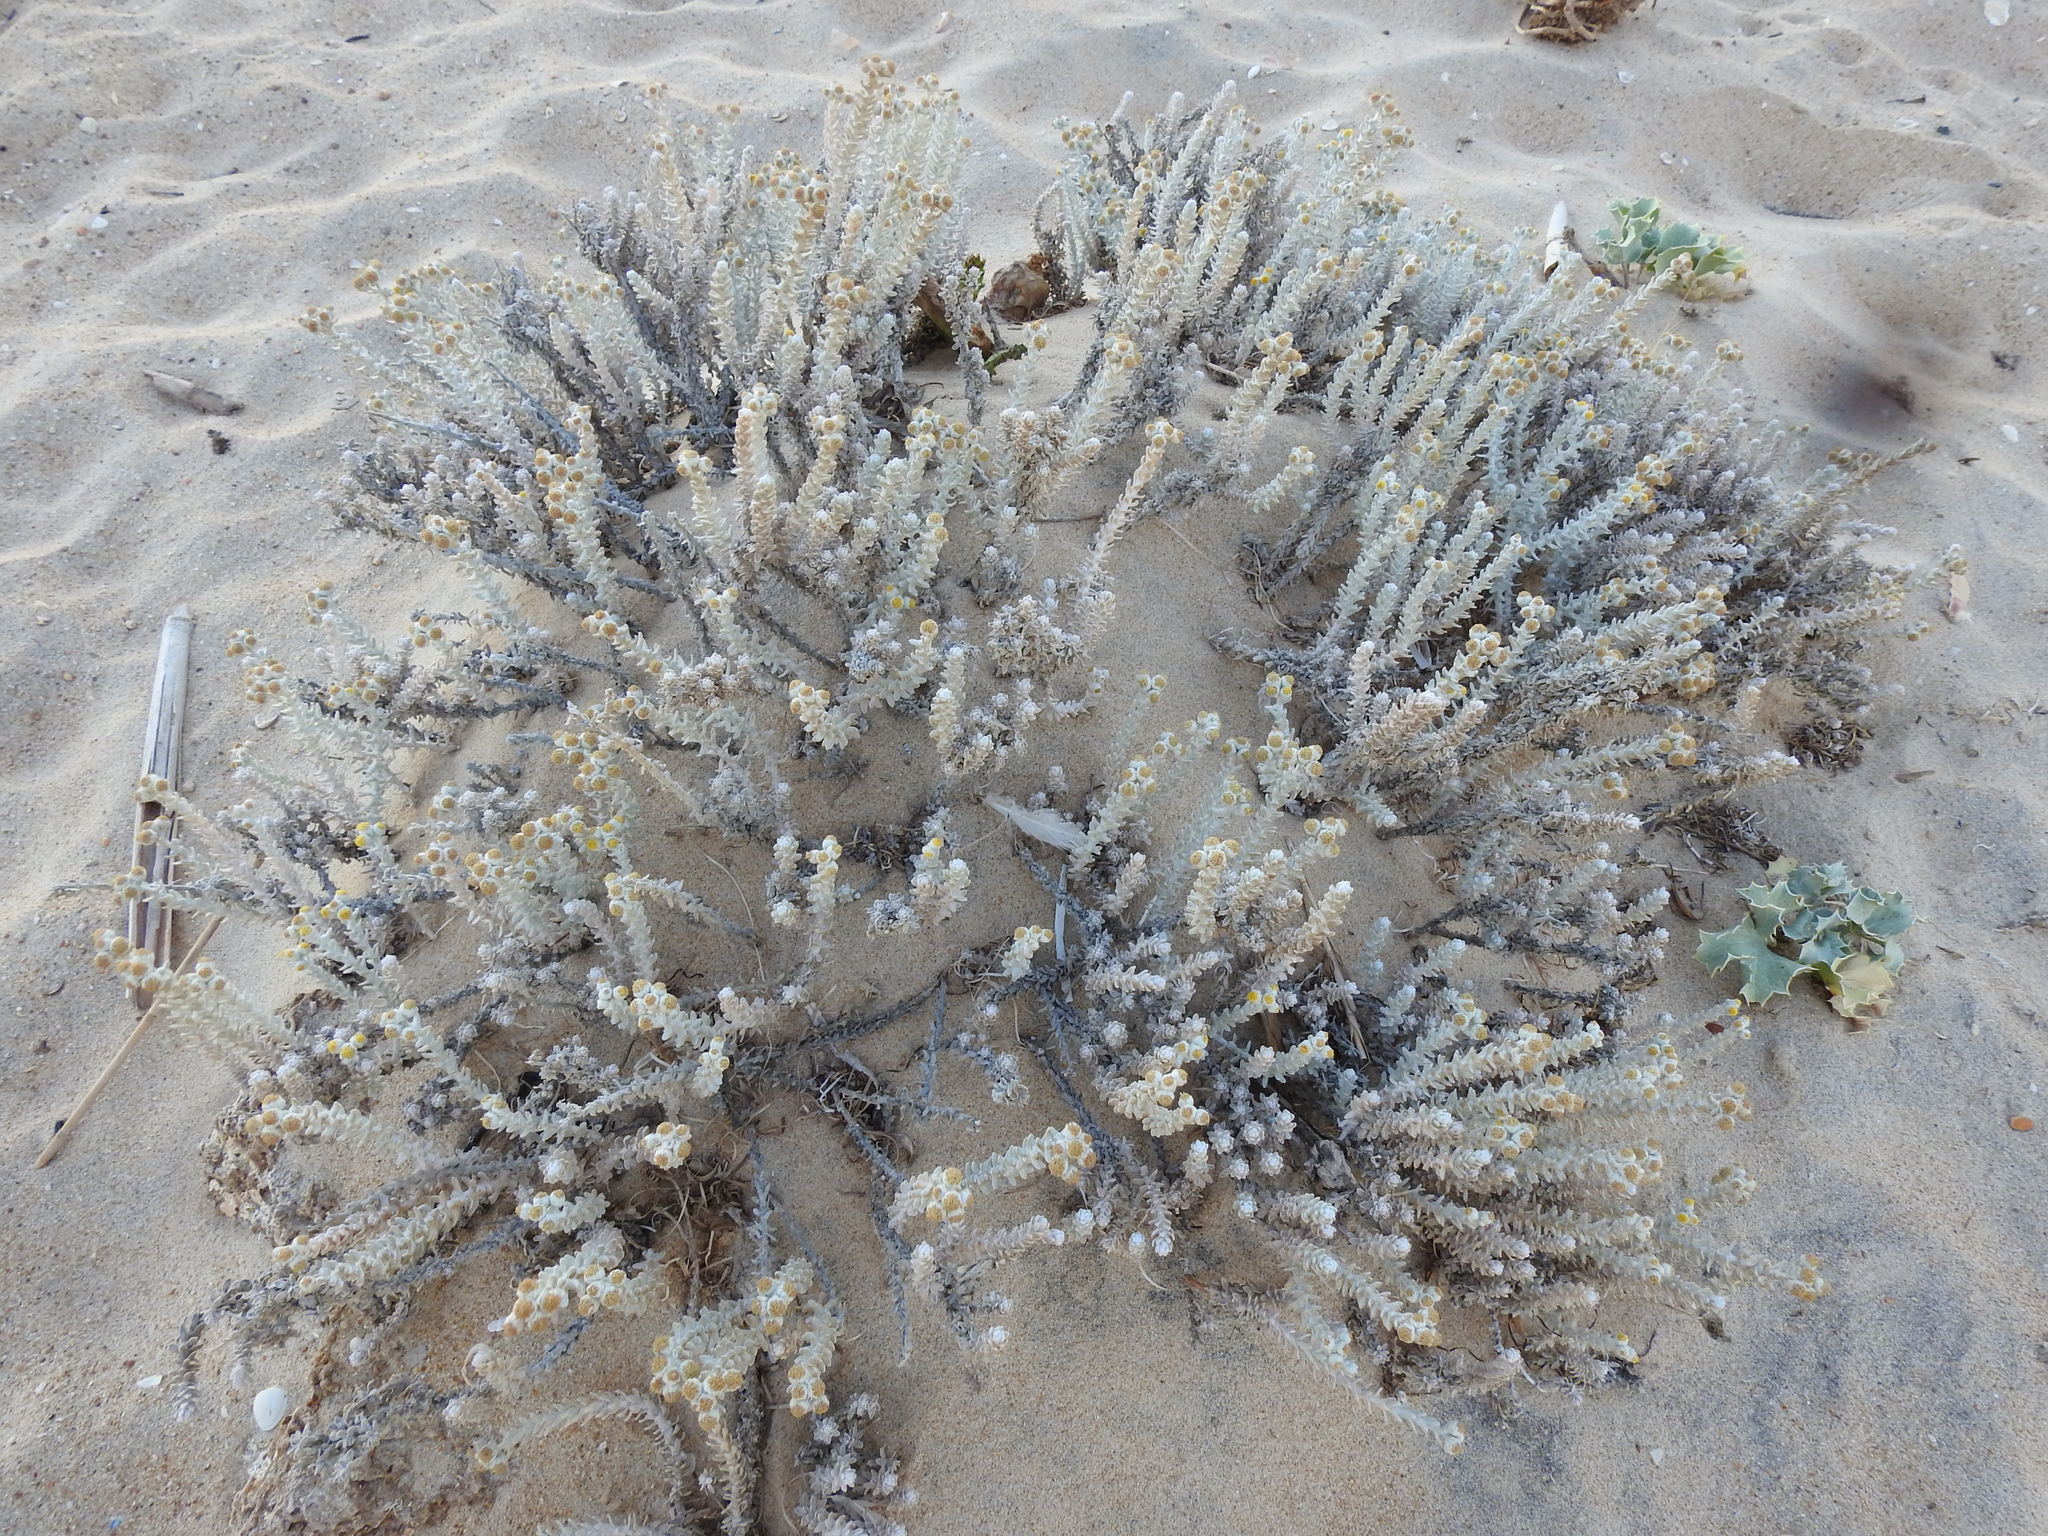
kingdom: Plantae
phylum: Tracheophyta
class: Magnoliopsida
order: Asterales
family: Asteraceae
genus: Achillea
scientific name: Achillea maritima
